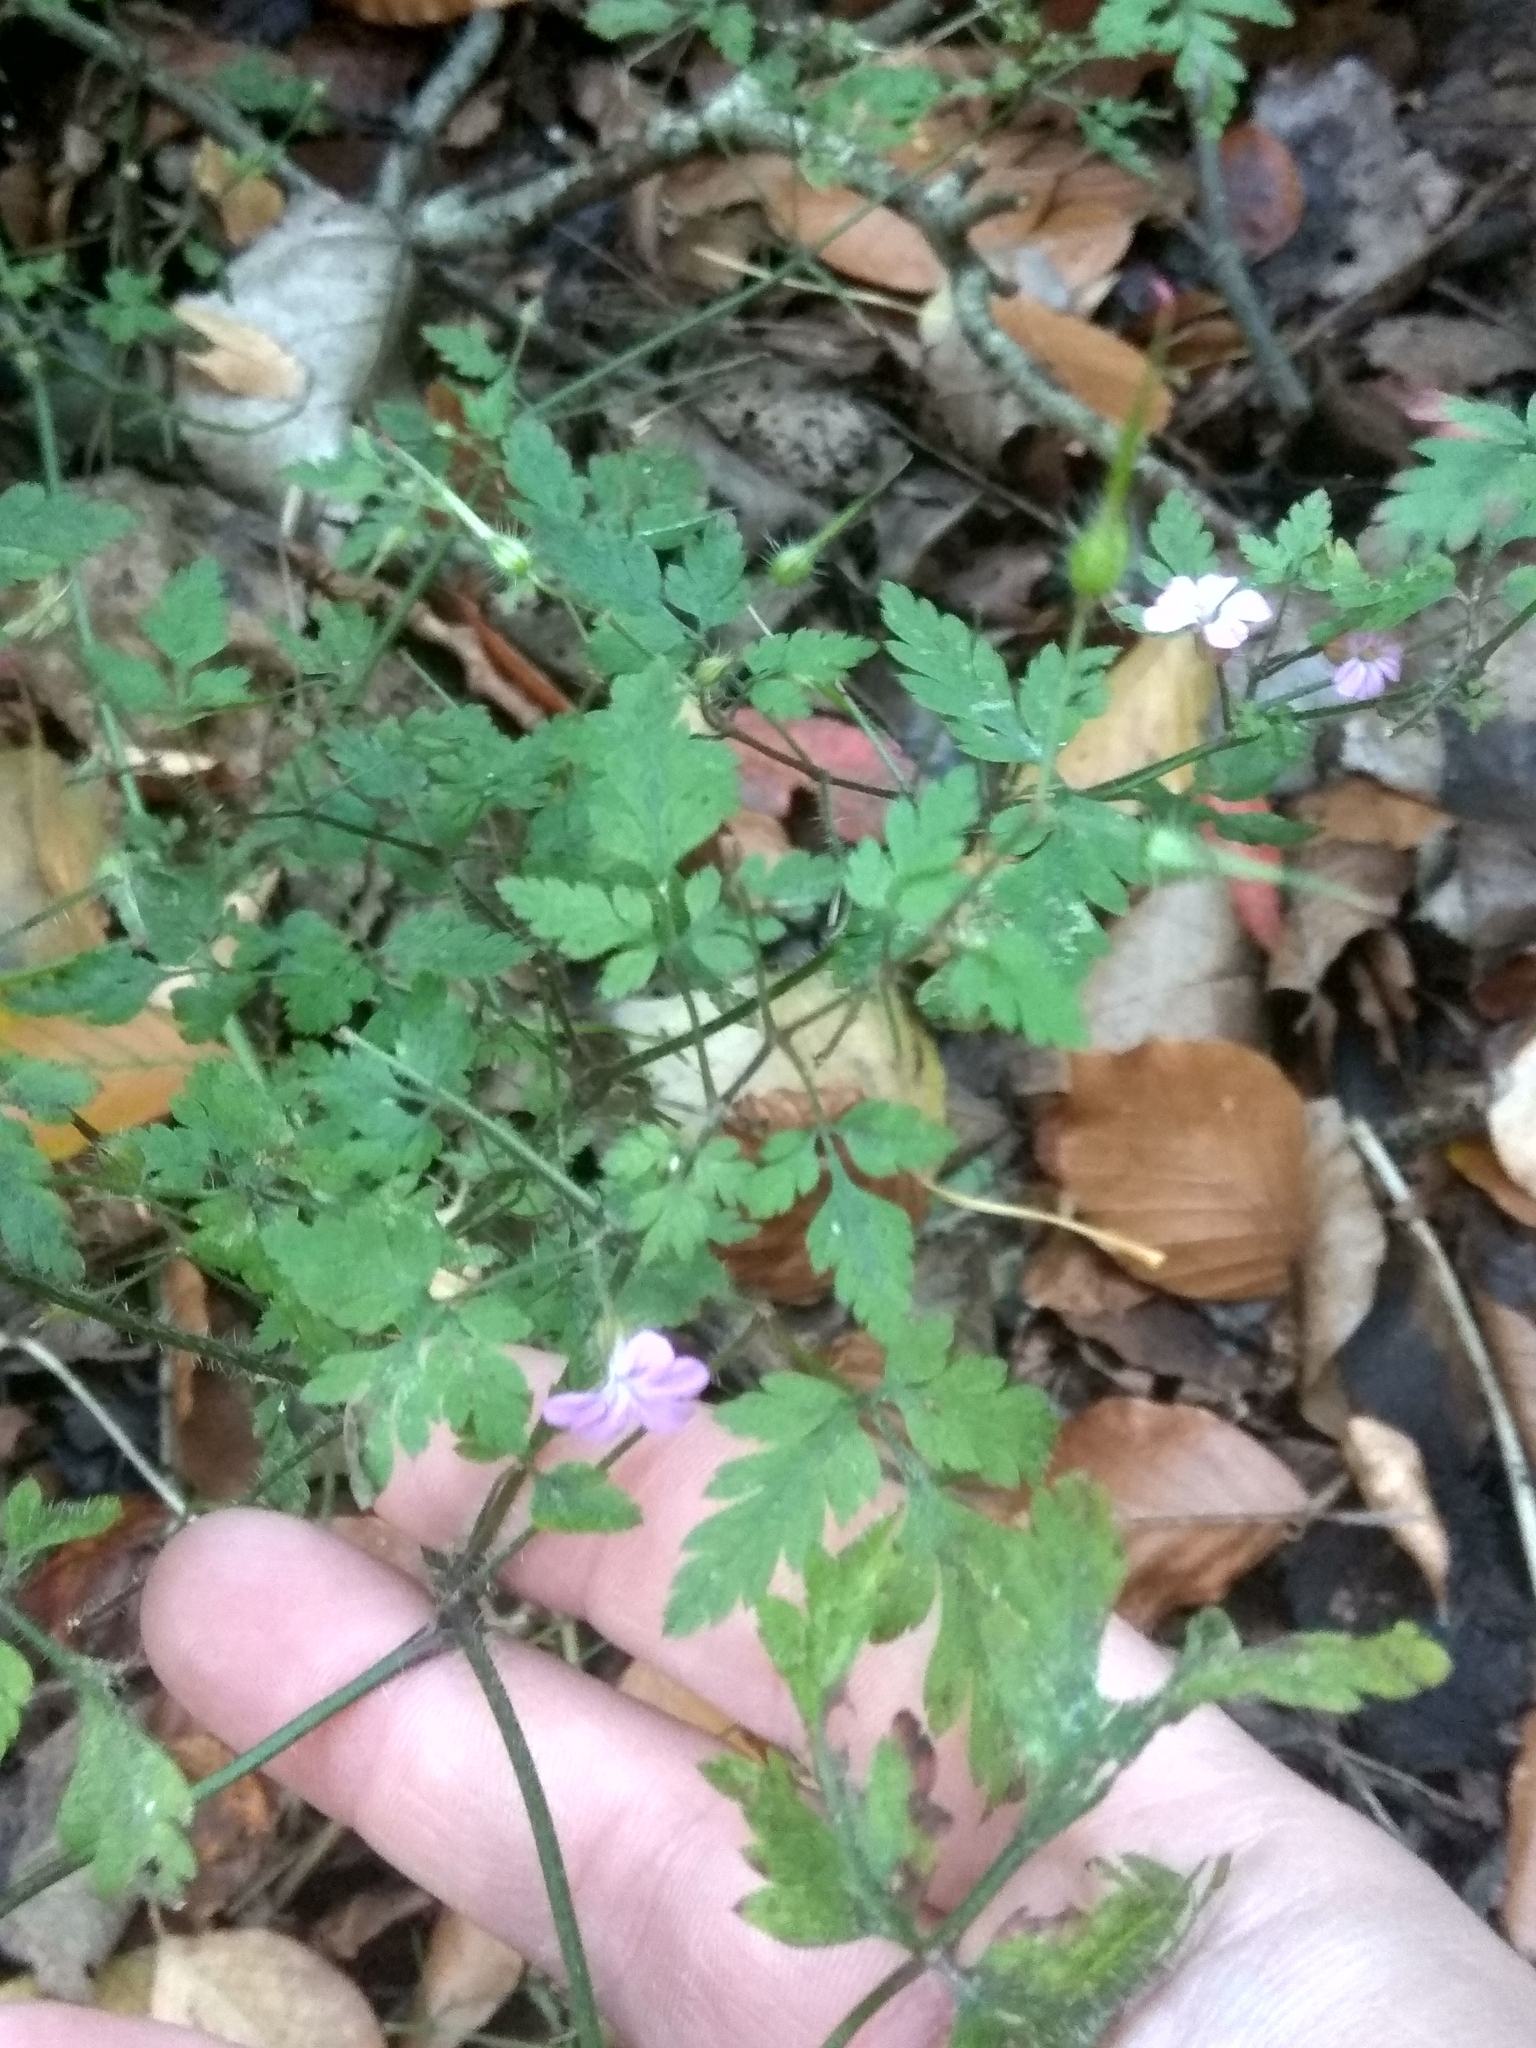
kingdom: Plantae
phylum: Tracheophyta
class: Magnoliopsida
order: Geraniales
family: Geraniaceae
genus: Geranium
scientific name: Geranium robertianum
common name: Herb-robert
